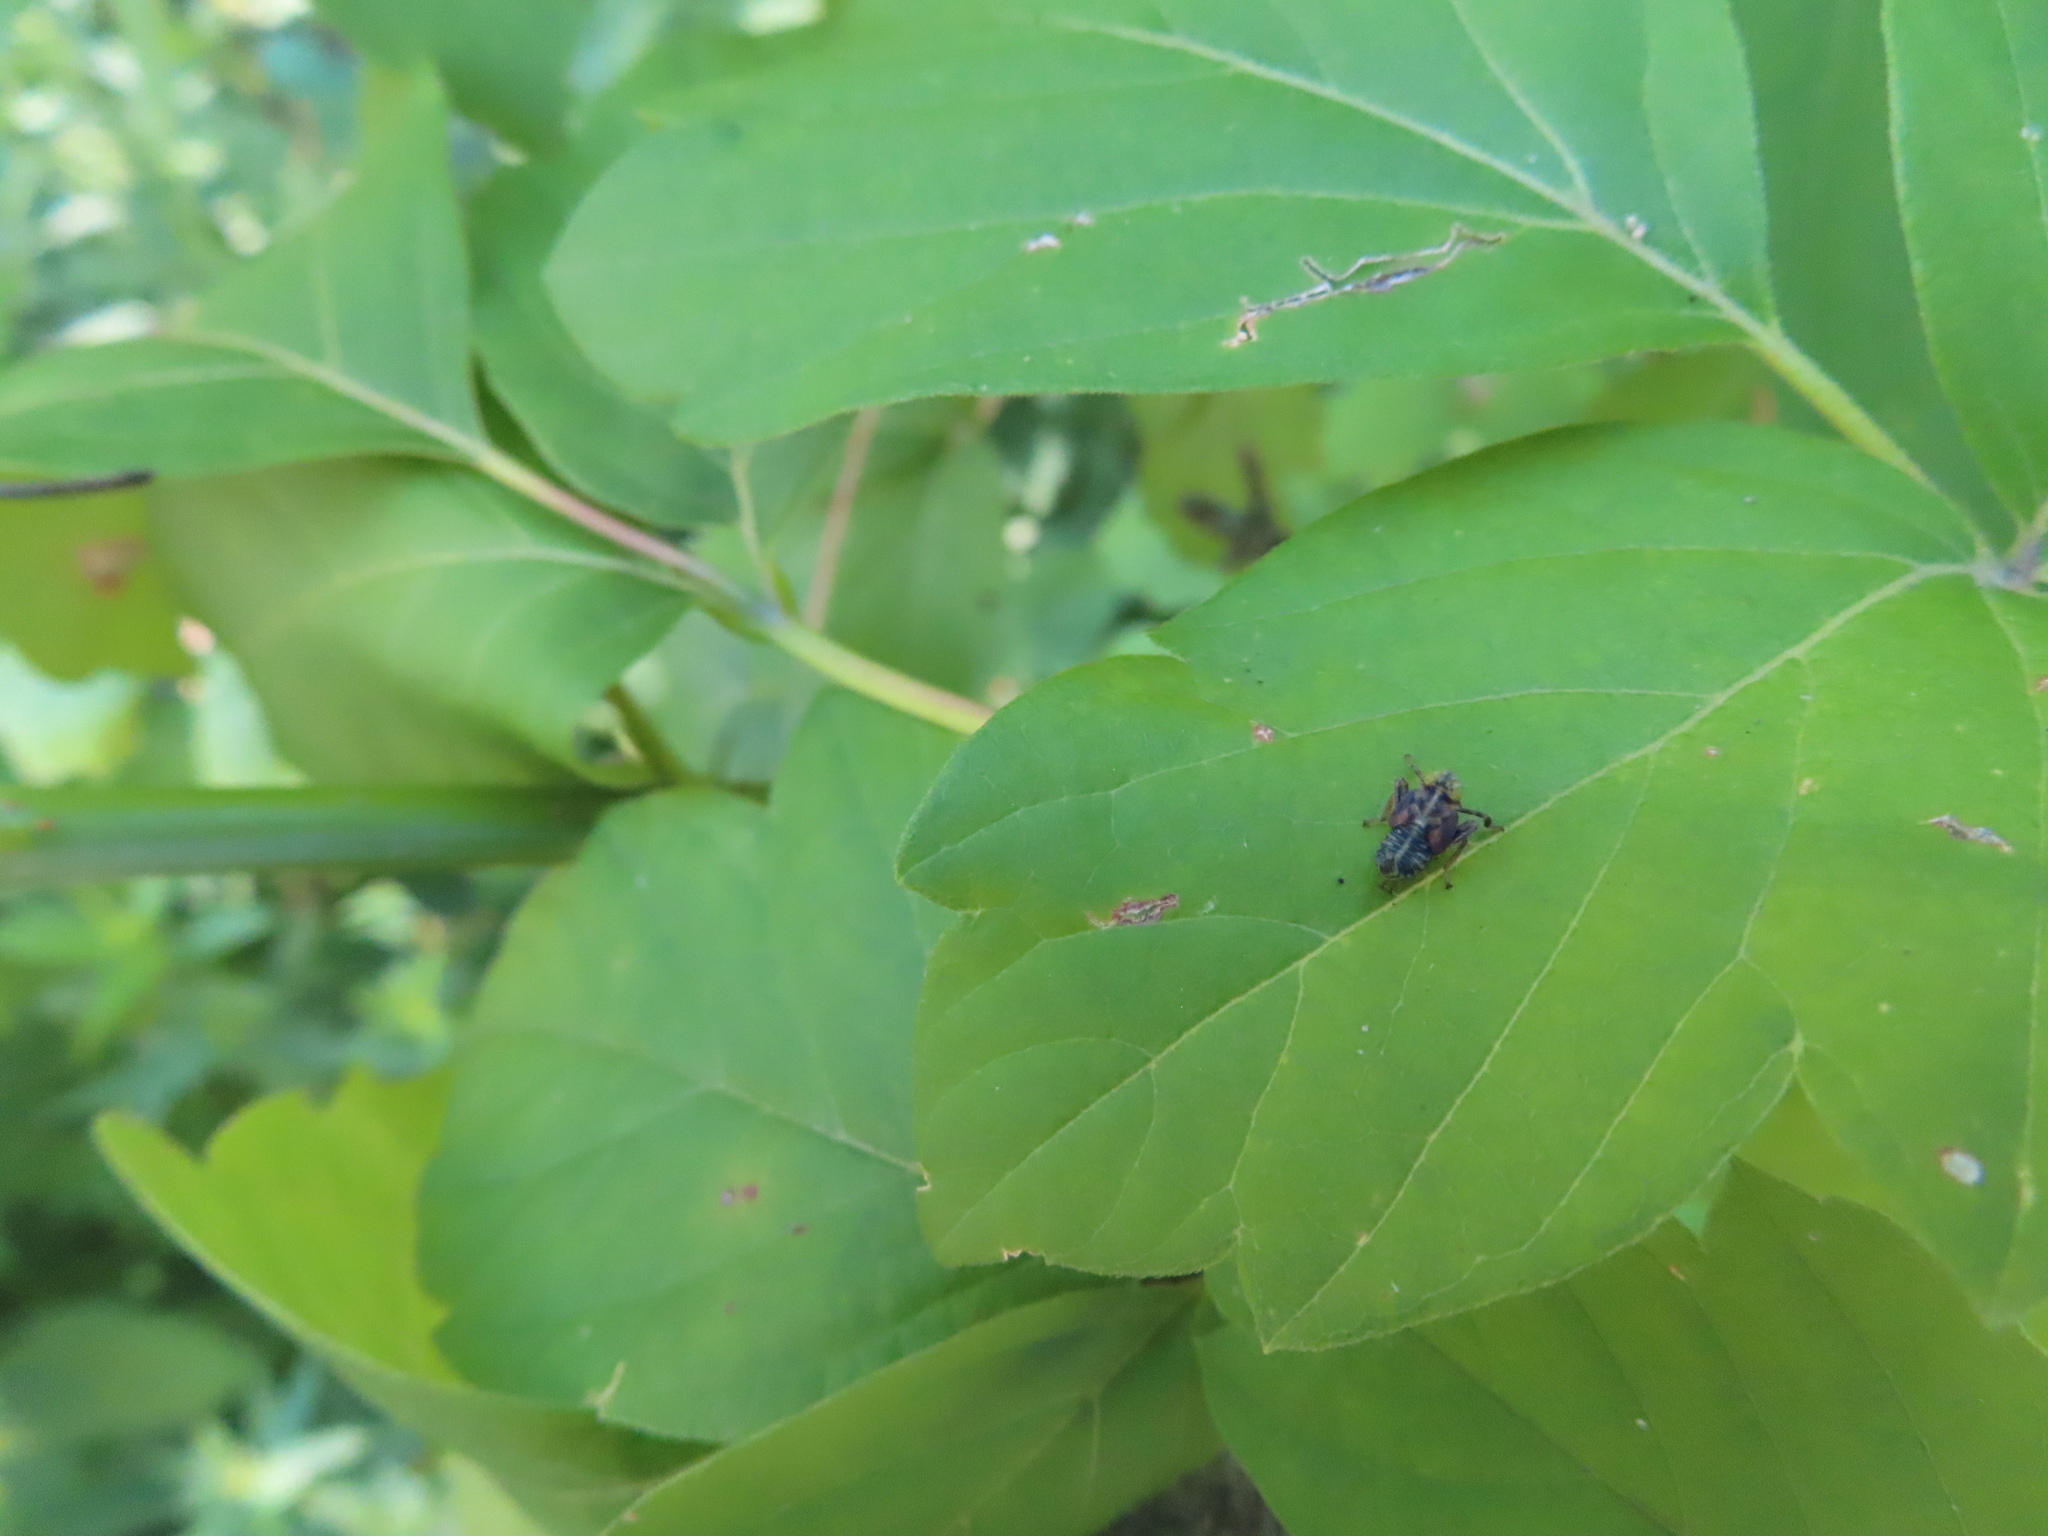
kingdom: Animalia
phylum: Arthropoda
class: Insecta
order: Hemiptera
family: Cicadellidae
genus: Jikradia
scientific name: Jikradia olitoria
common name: Coppery leafhopper
